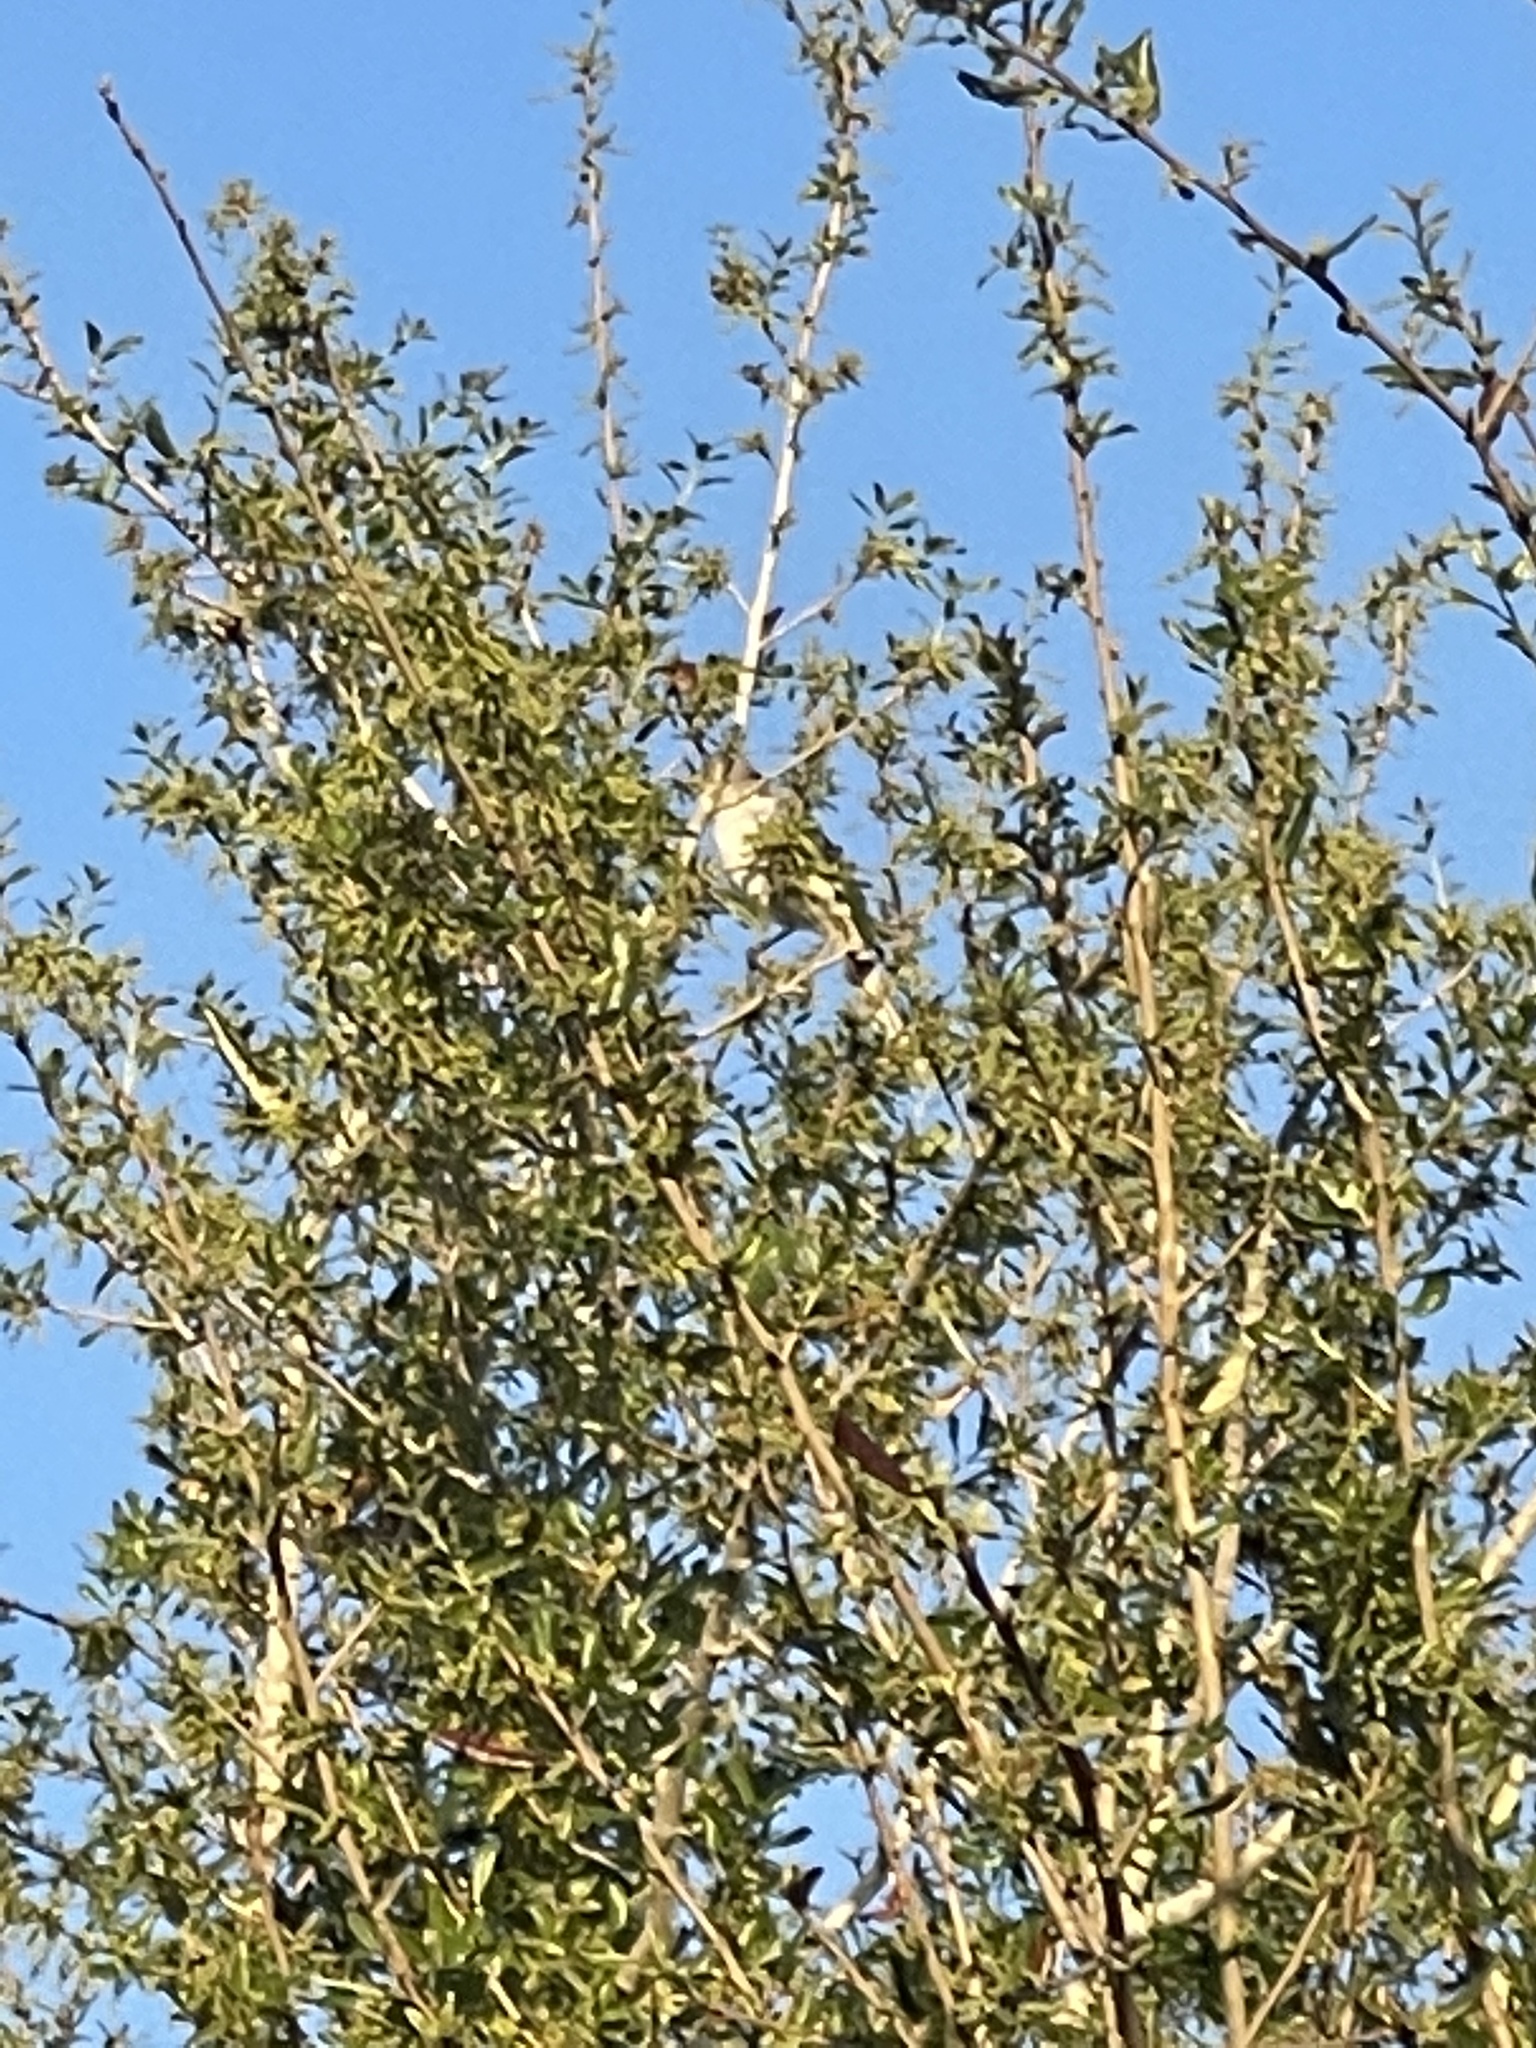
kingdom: Animalia
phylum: Chordata
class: Aves
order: Passeriformes
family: Mimidae
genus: Mimus
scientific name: Mimus polyglottos
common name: Northern mockingbird
